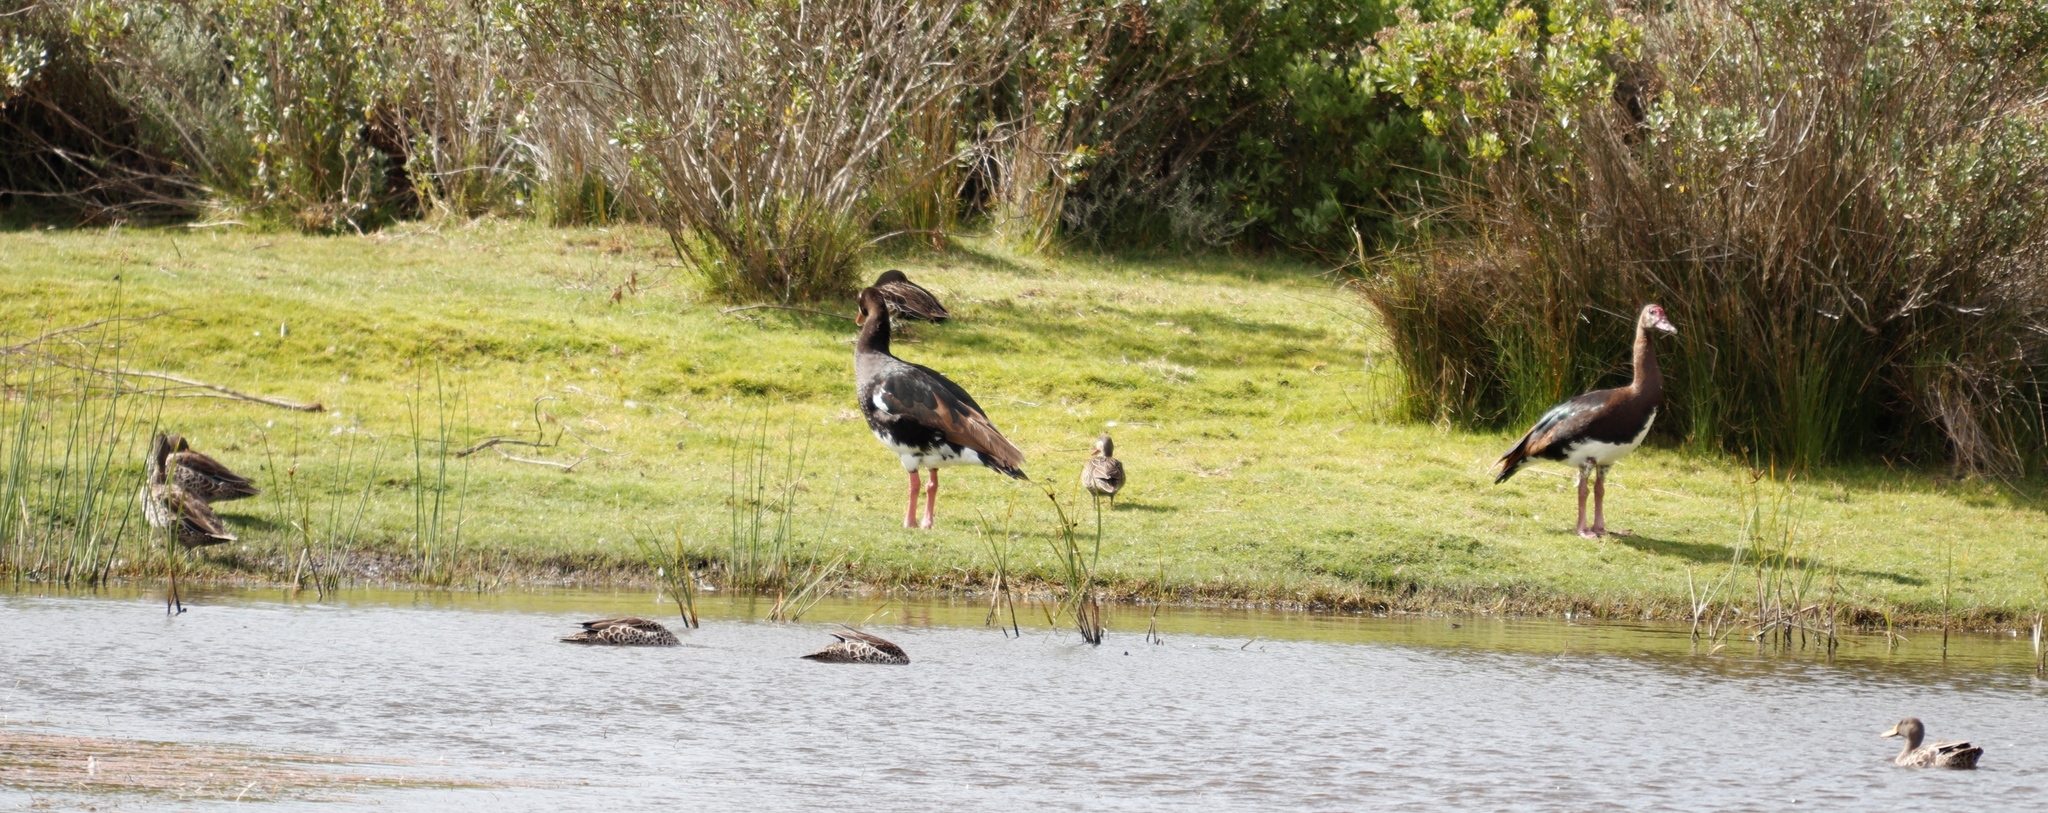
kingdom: Animalia
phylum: Chordata
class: Aves
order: Anseriformes
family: Anatidae
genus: Plectropterus
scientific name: Plectropterus gambensis
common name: Spur-winged goose
